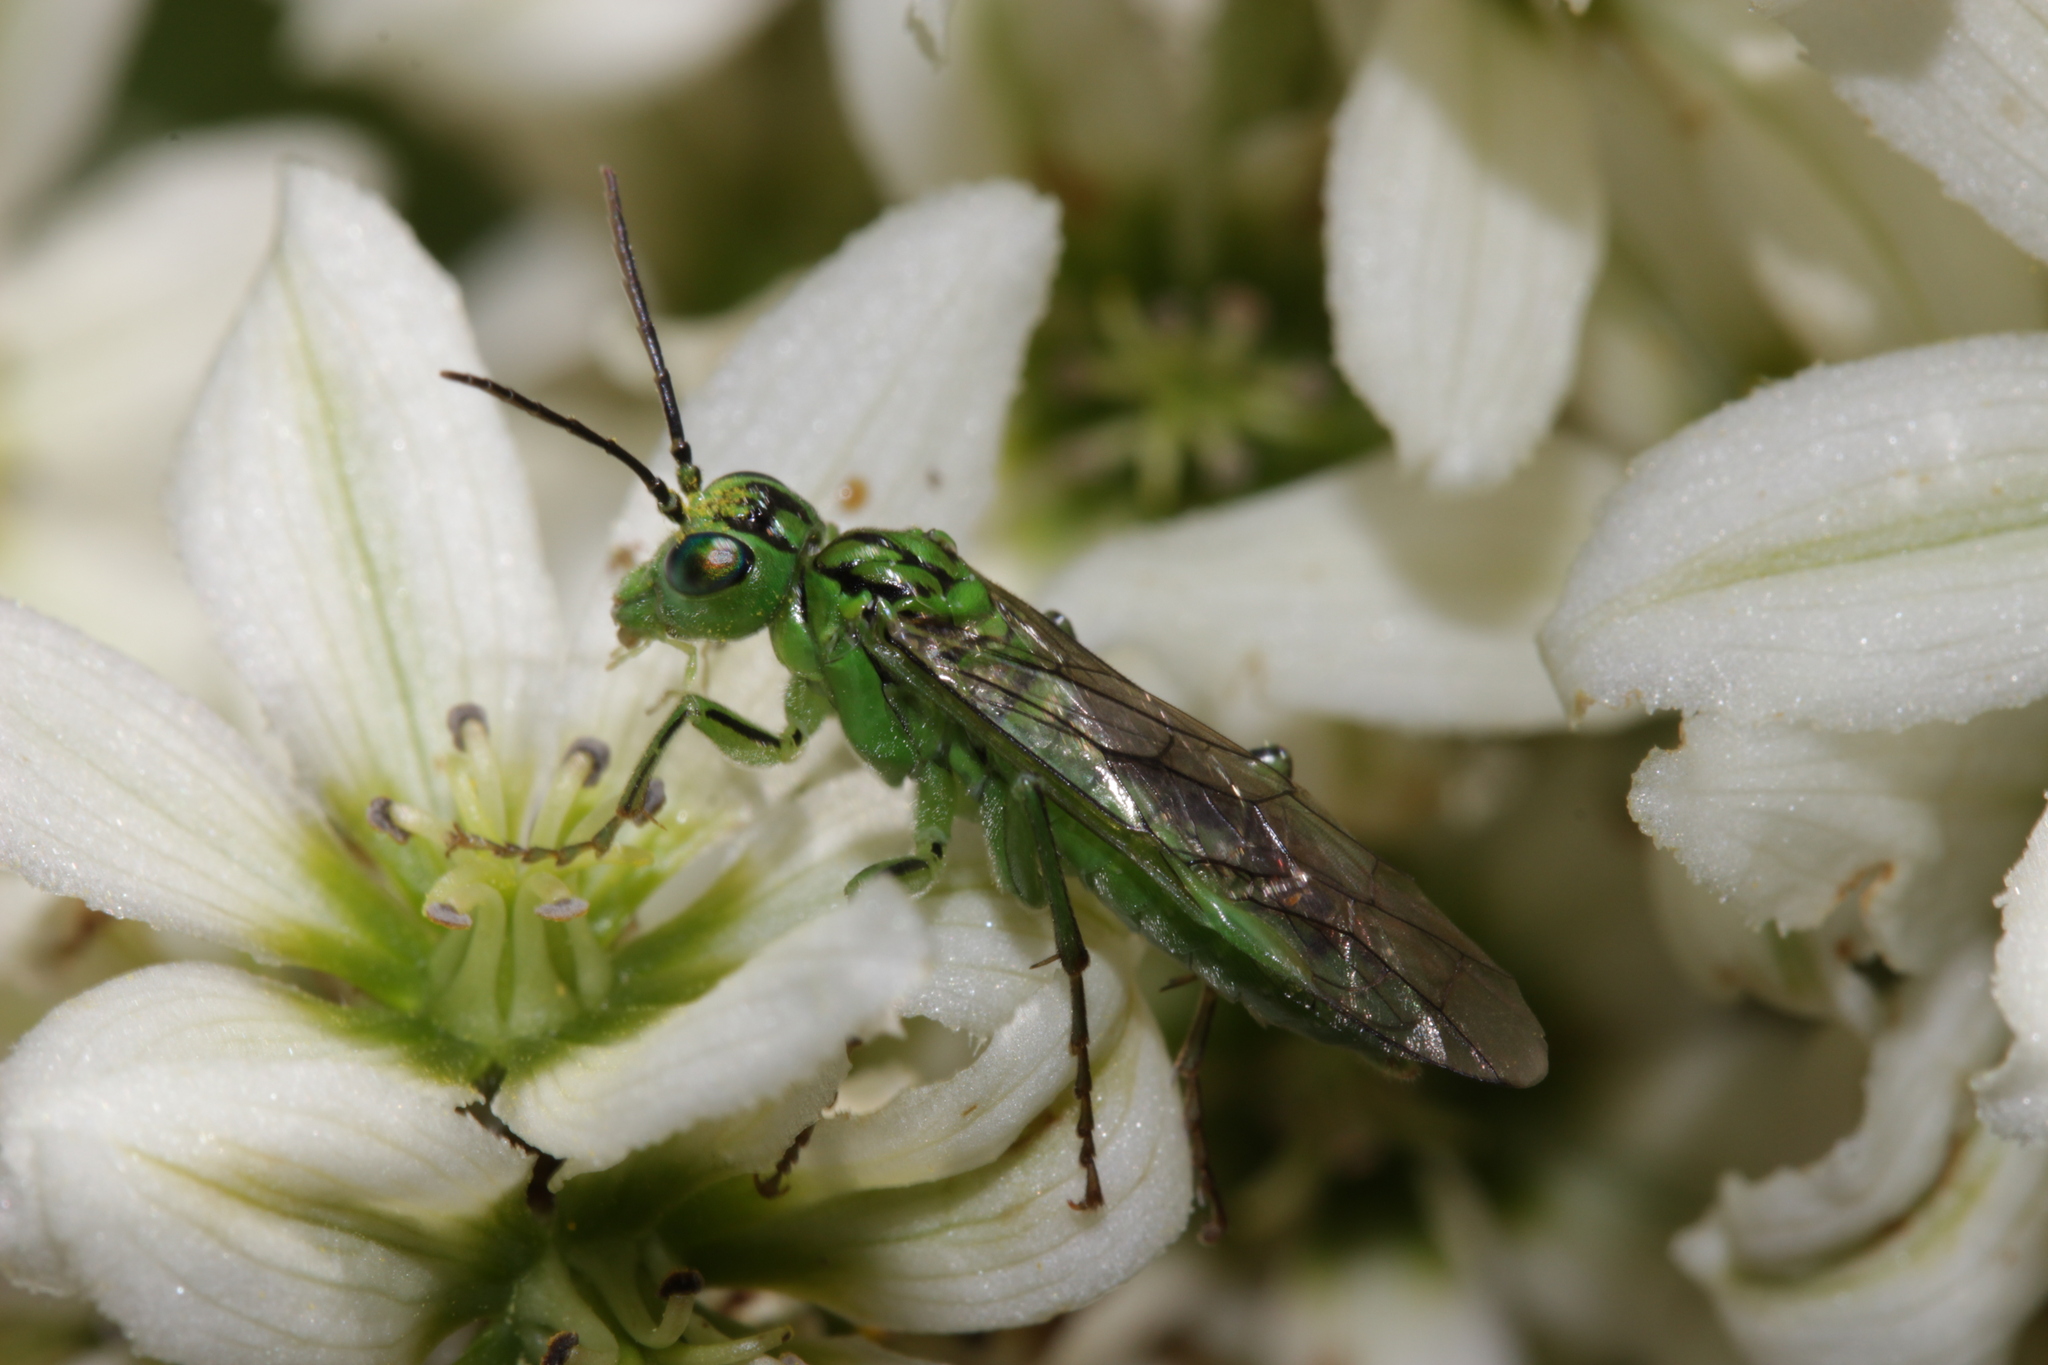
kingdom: Animalia
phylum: Arthropoda
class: Insecta
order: Hymenoptera
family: Tenthredinidae
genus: Tenthredo
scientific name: Tenthredo olivacea
